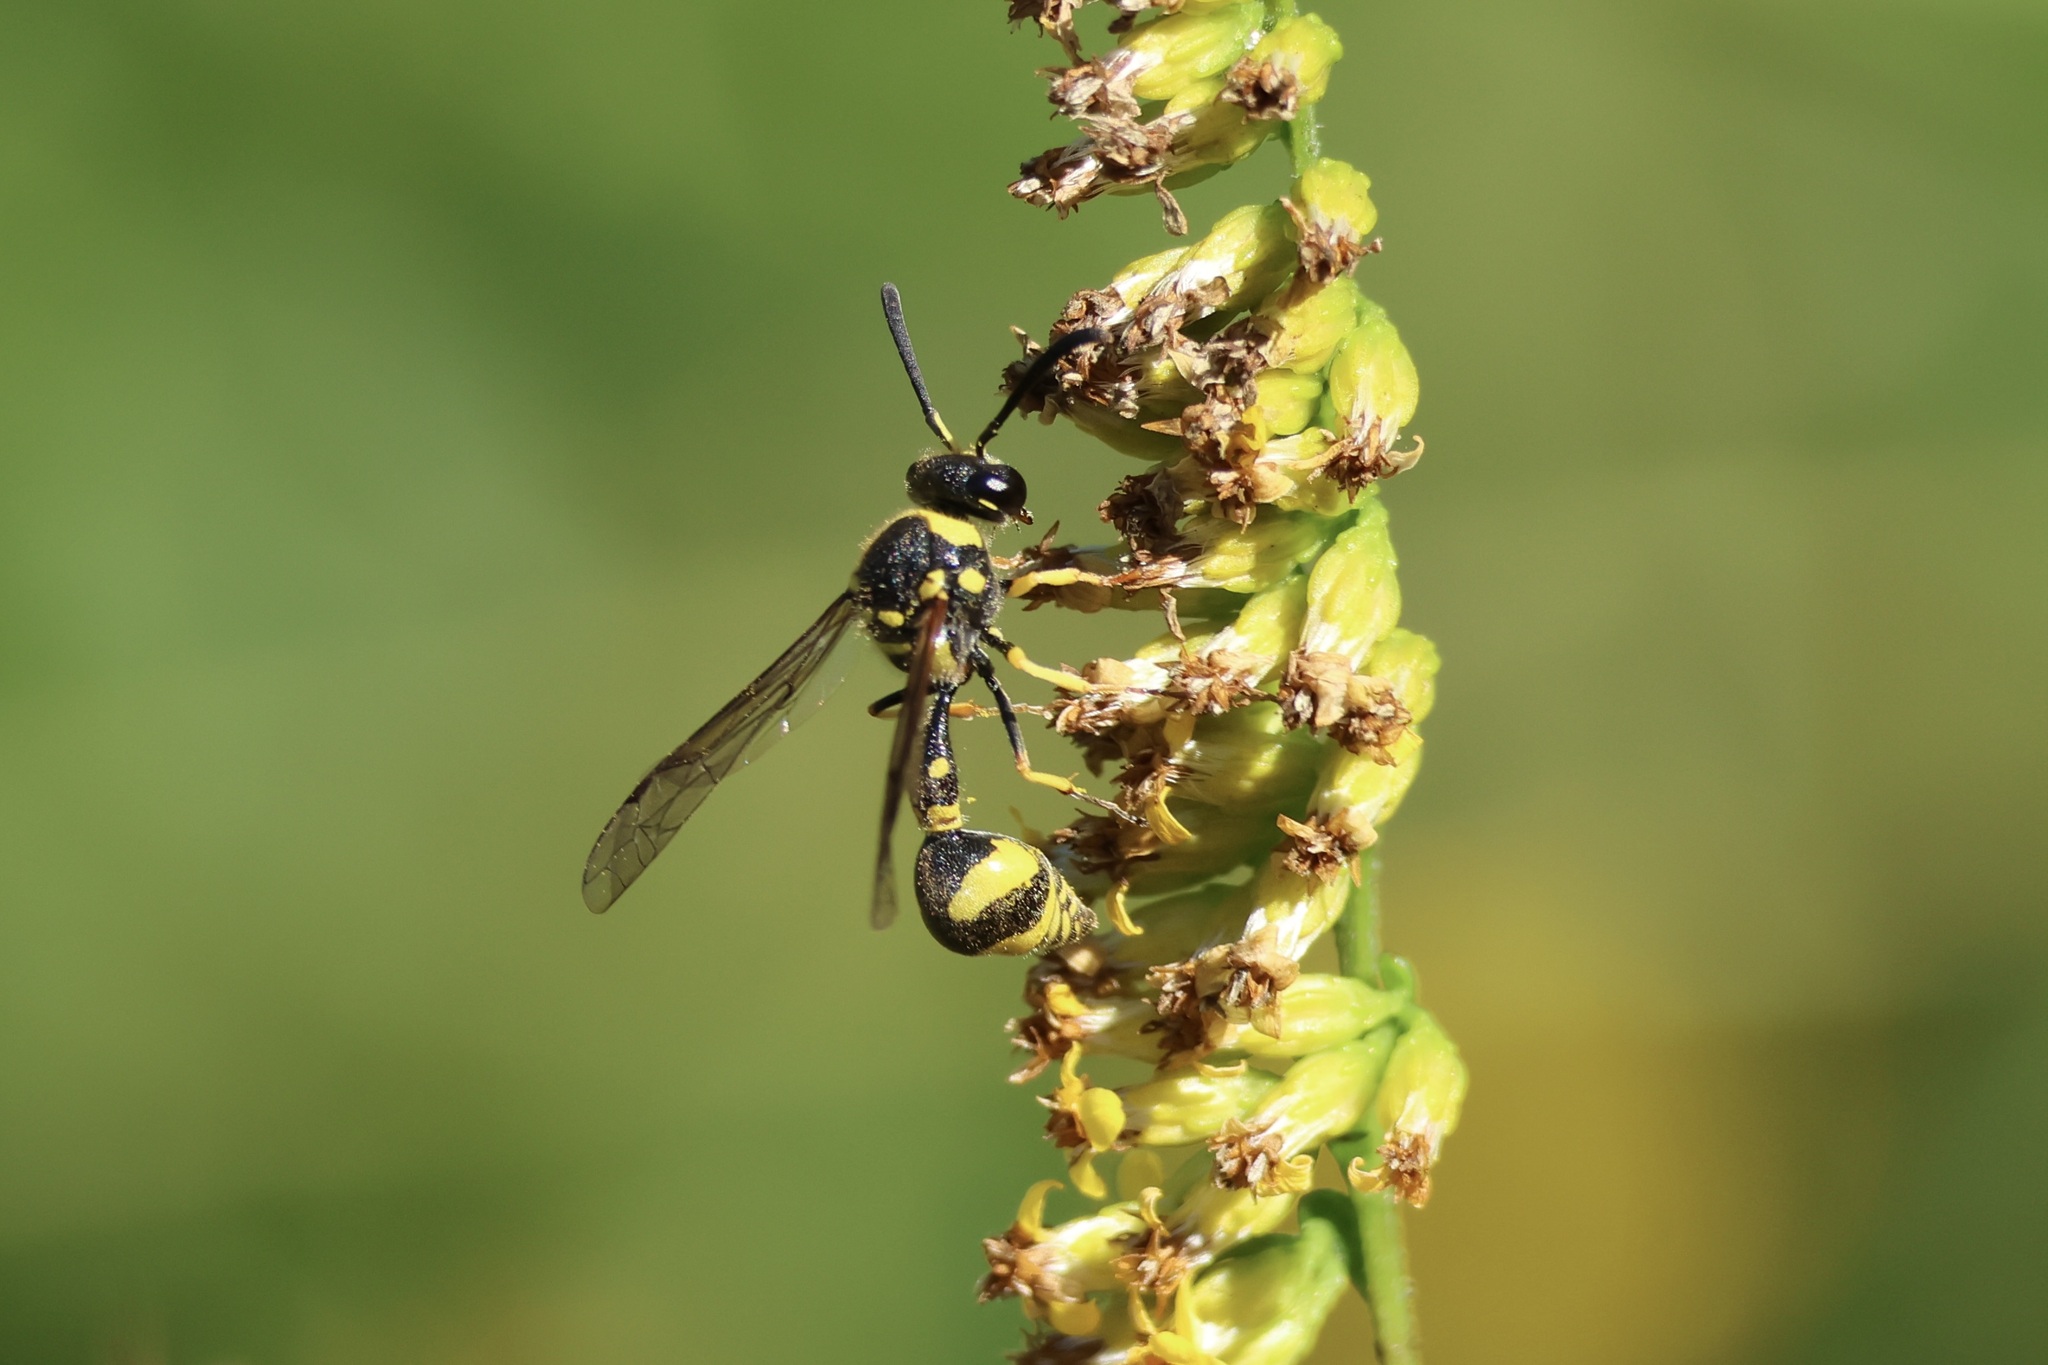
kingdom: Animalia
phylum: Arthropoda
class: Insecta
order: Hymenoptera
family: Vespidae
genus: Eumenes
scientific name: Eumenes mediterraneus
